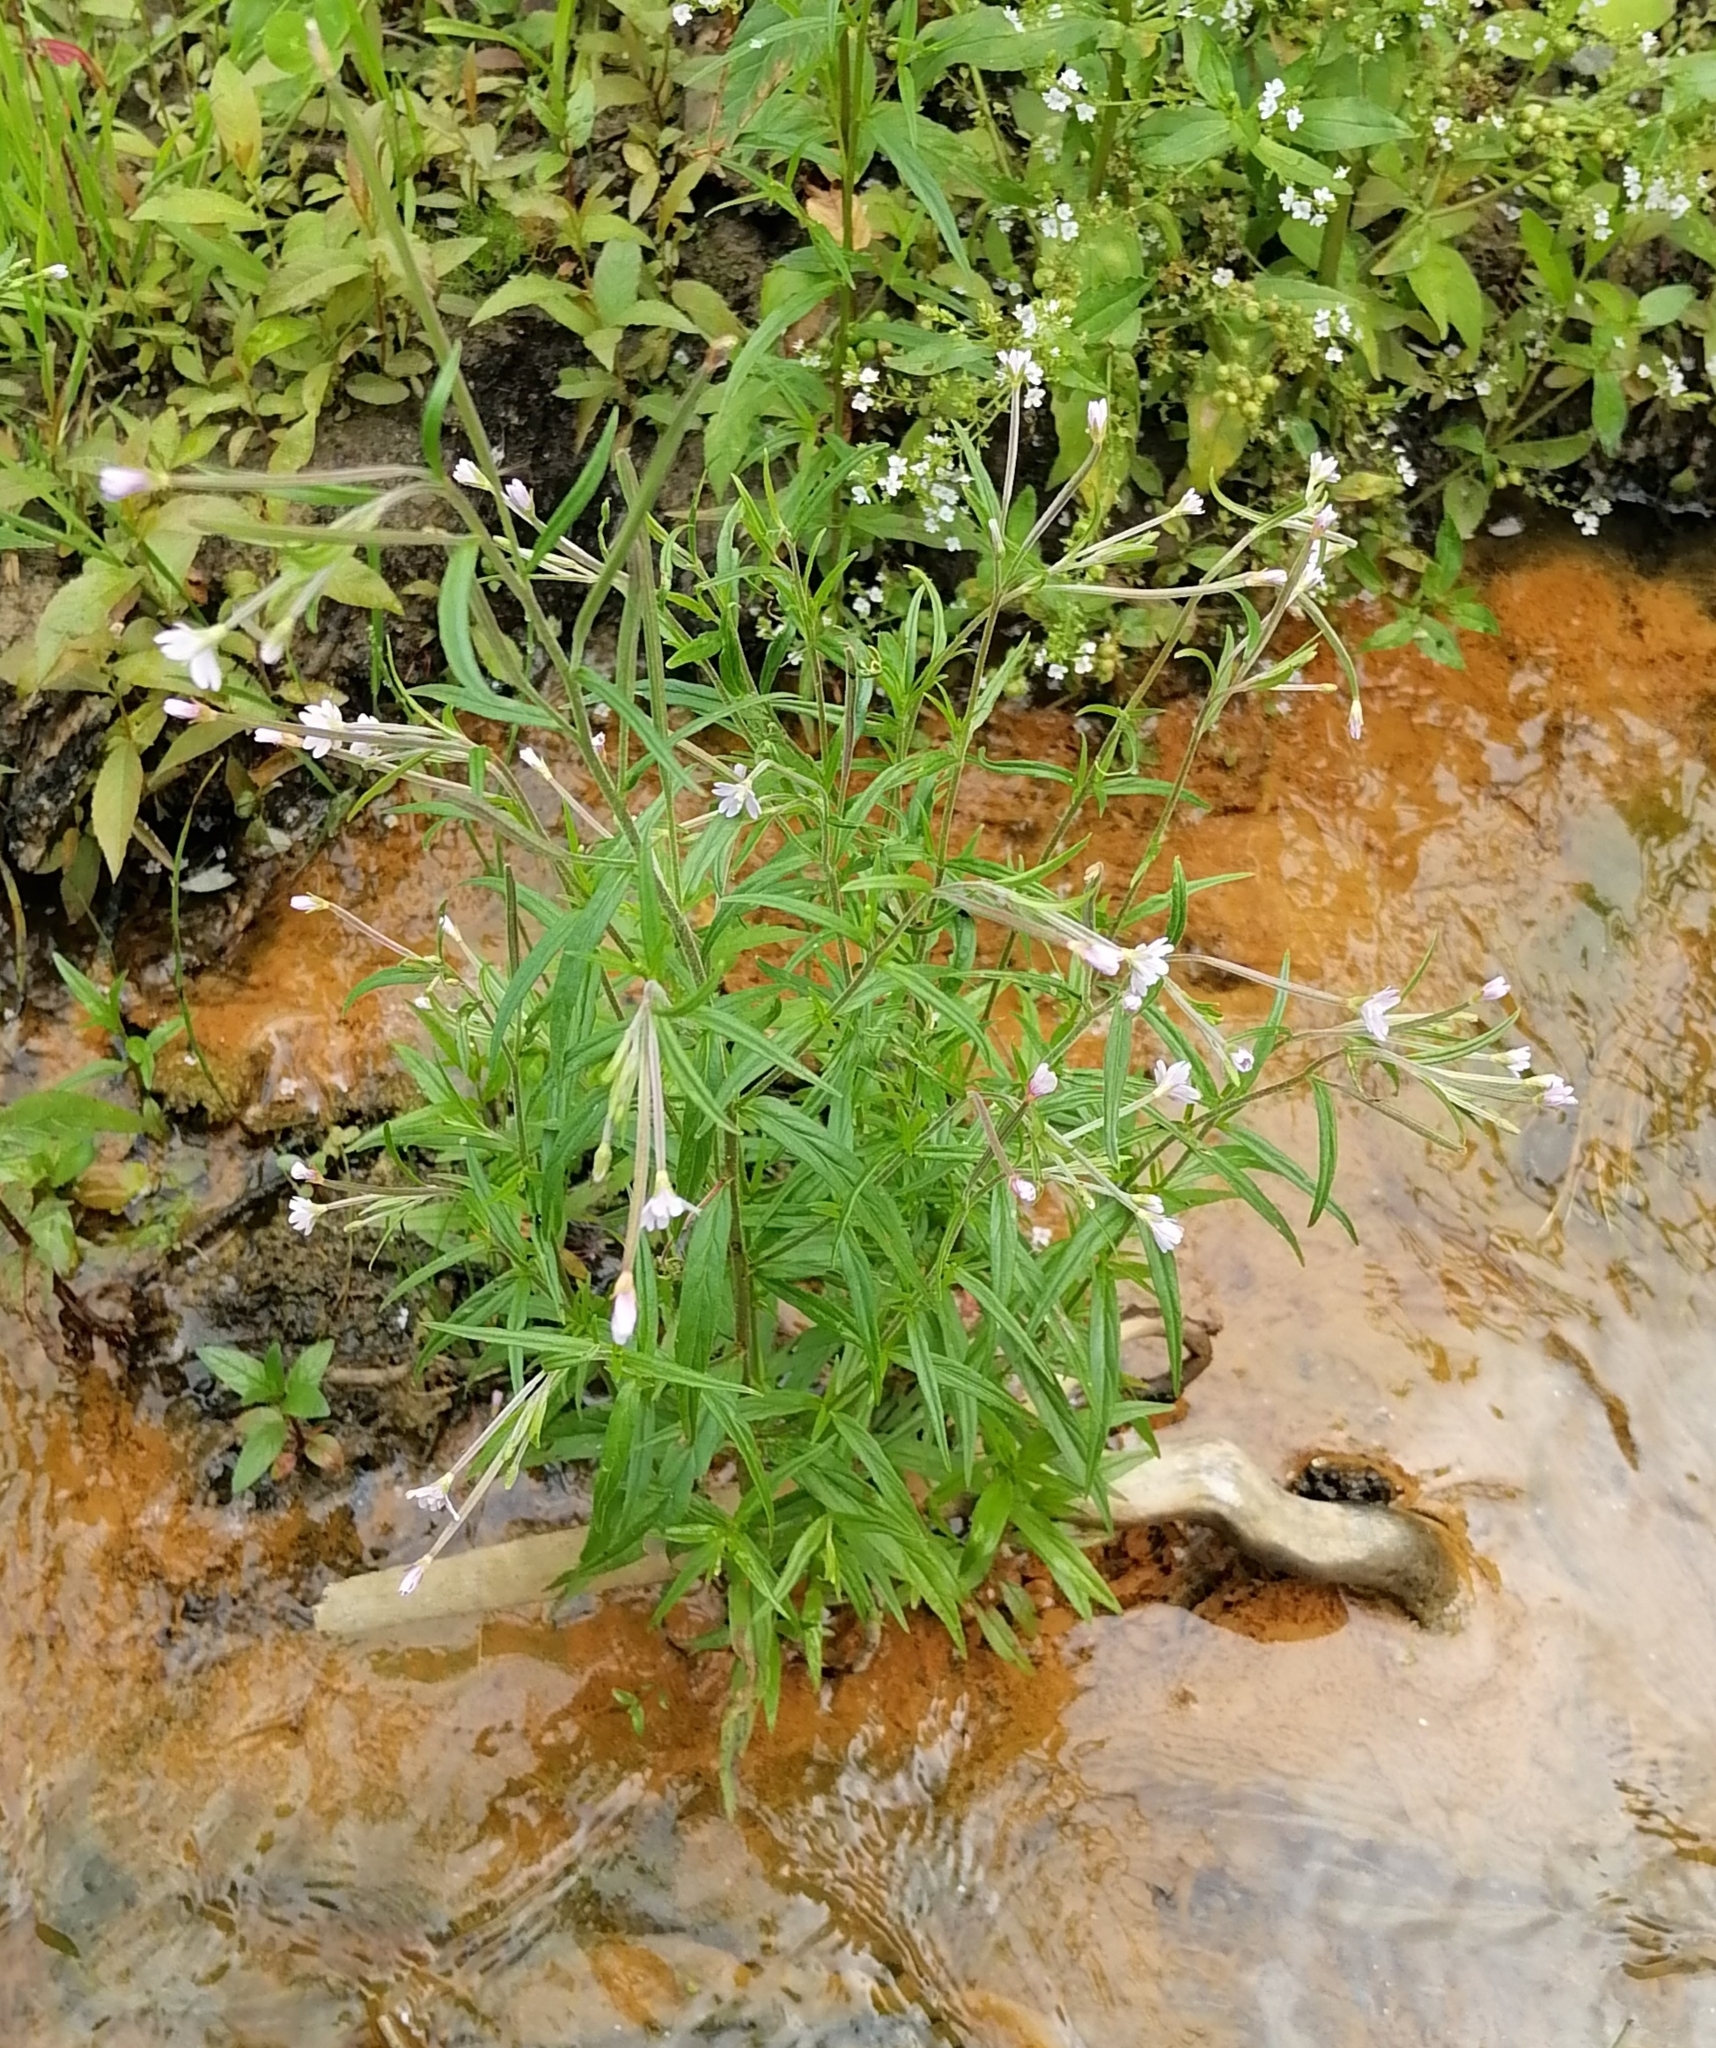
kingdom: Plantae
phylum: Tracheophyta
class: Magnoliopsida
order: Myrtales
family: Onagraceae
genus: Epilobium
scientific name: Epilobium palustre
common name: Marsh willowherb
